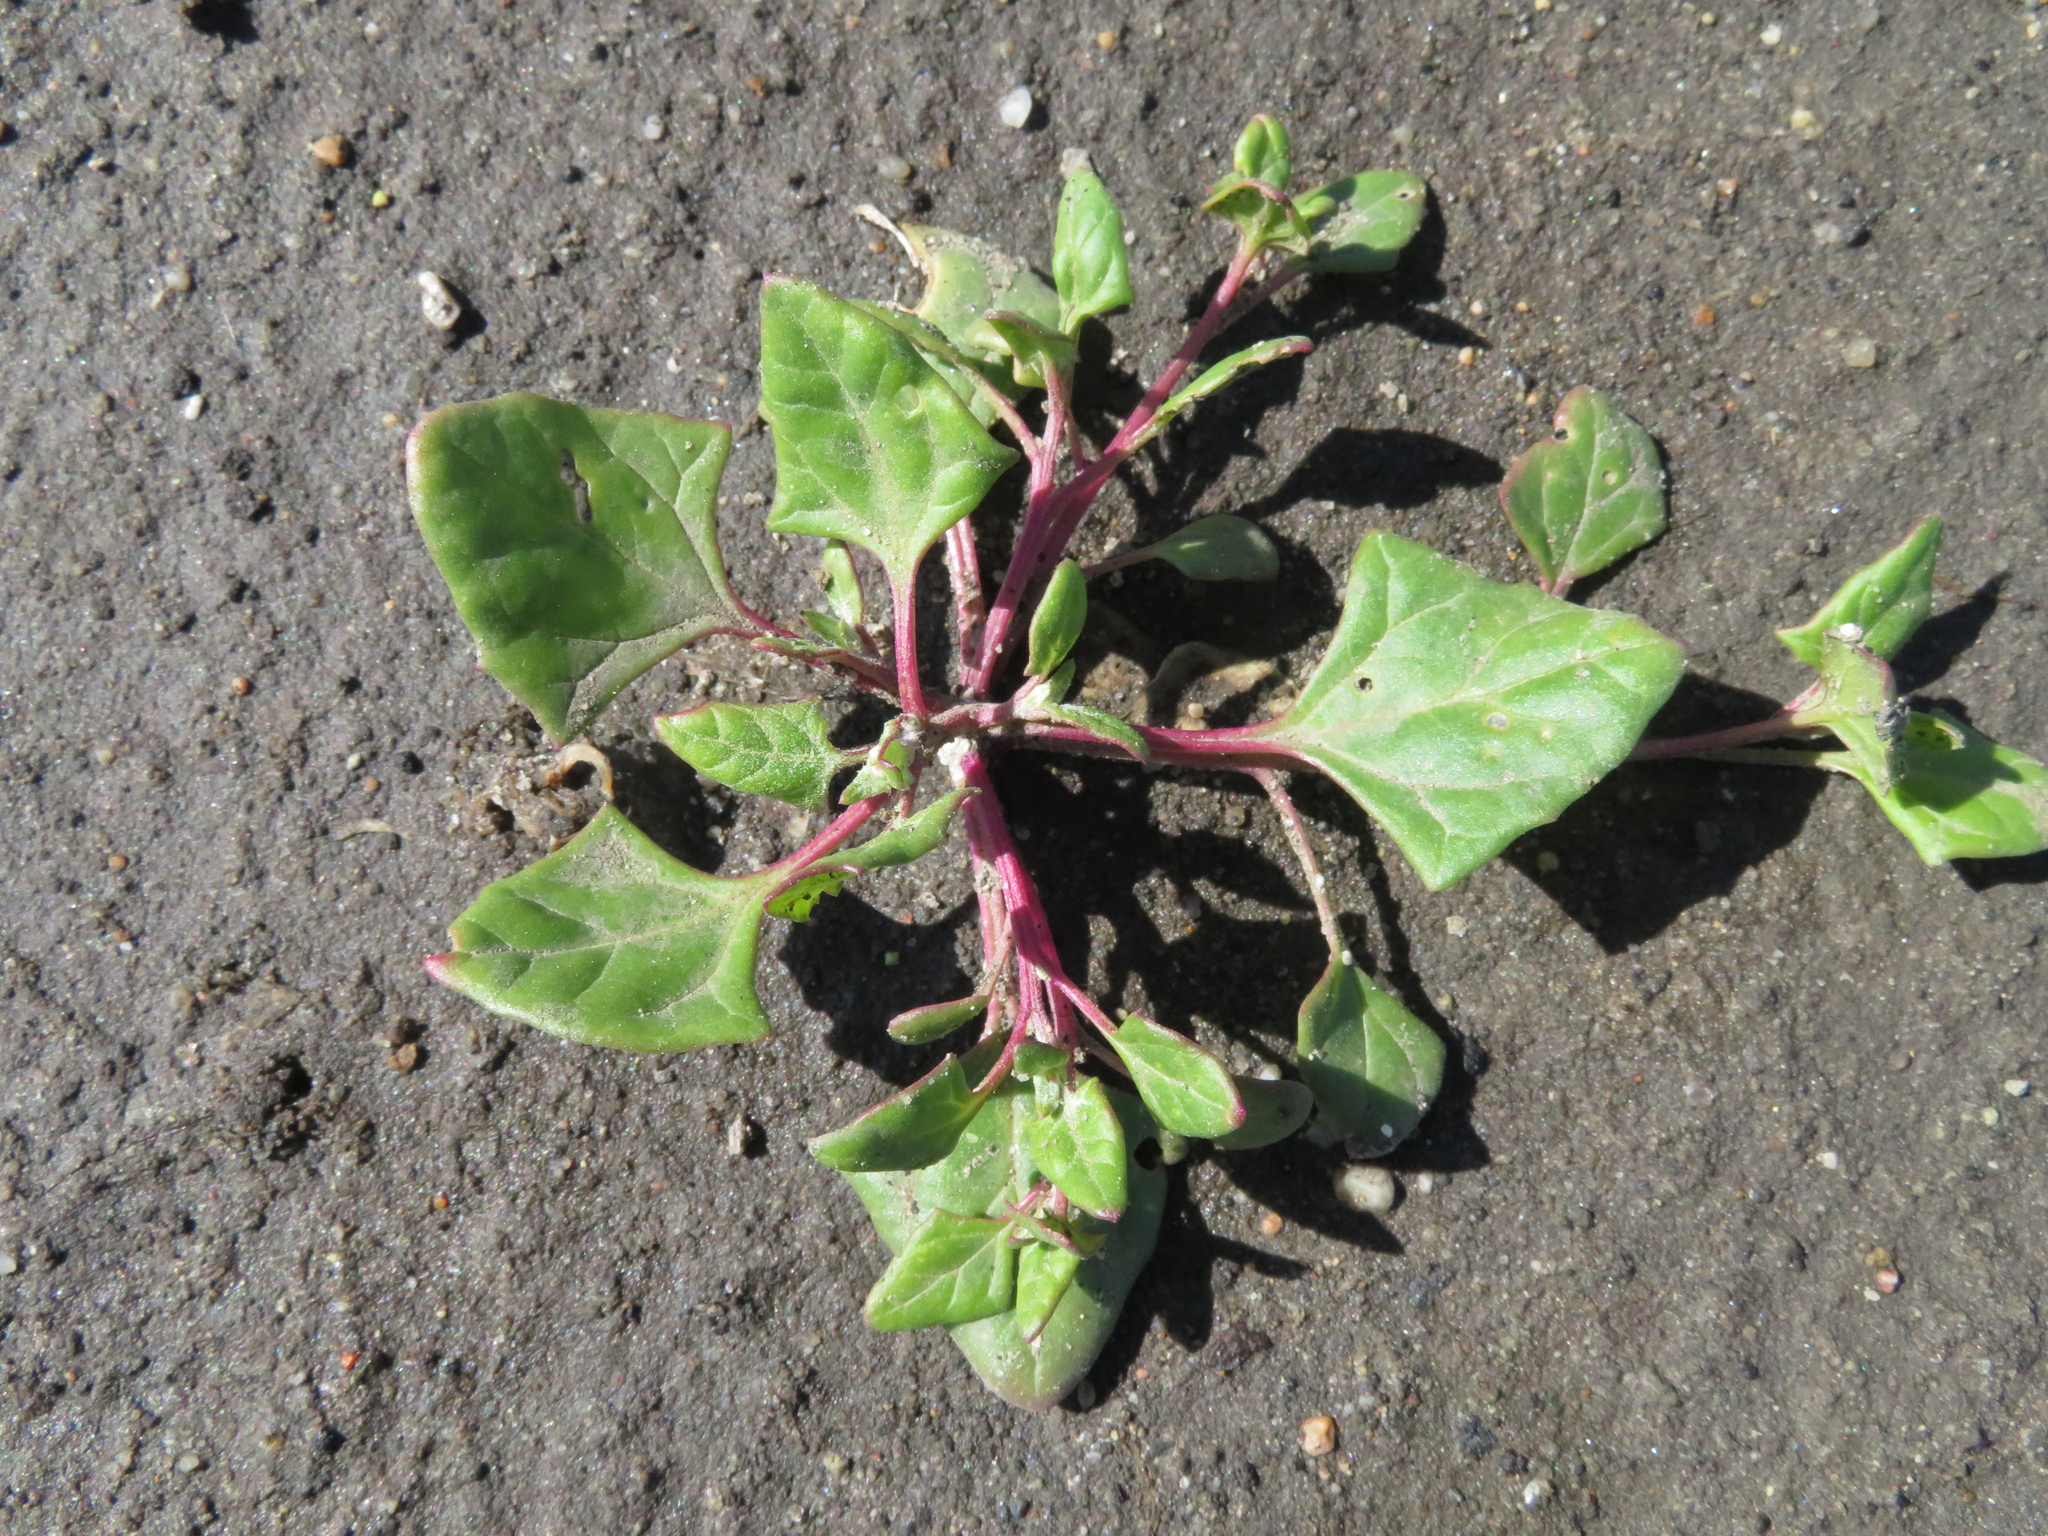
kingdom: Plantae
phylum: Tracheophyta
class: Magnoliopsida
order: Caryophyllales
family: Amaranthaceae
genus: Oxybasis
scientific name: Oxybasis chenopodioides
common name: Saltmarsh goosefoot
